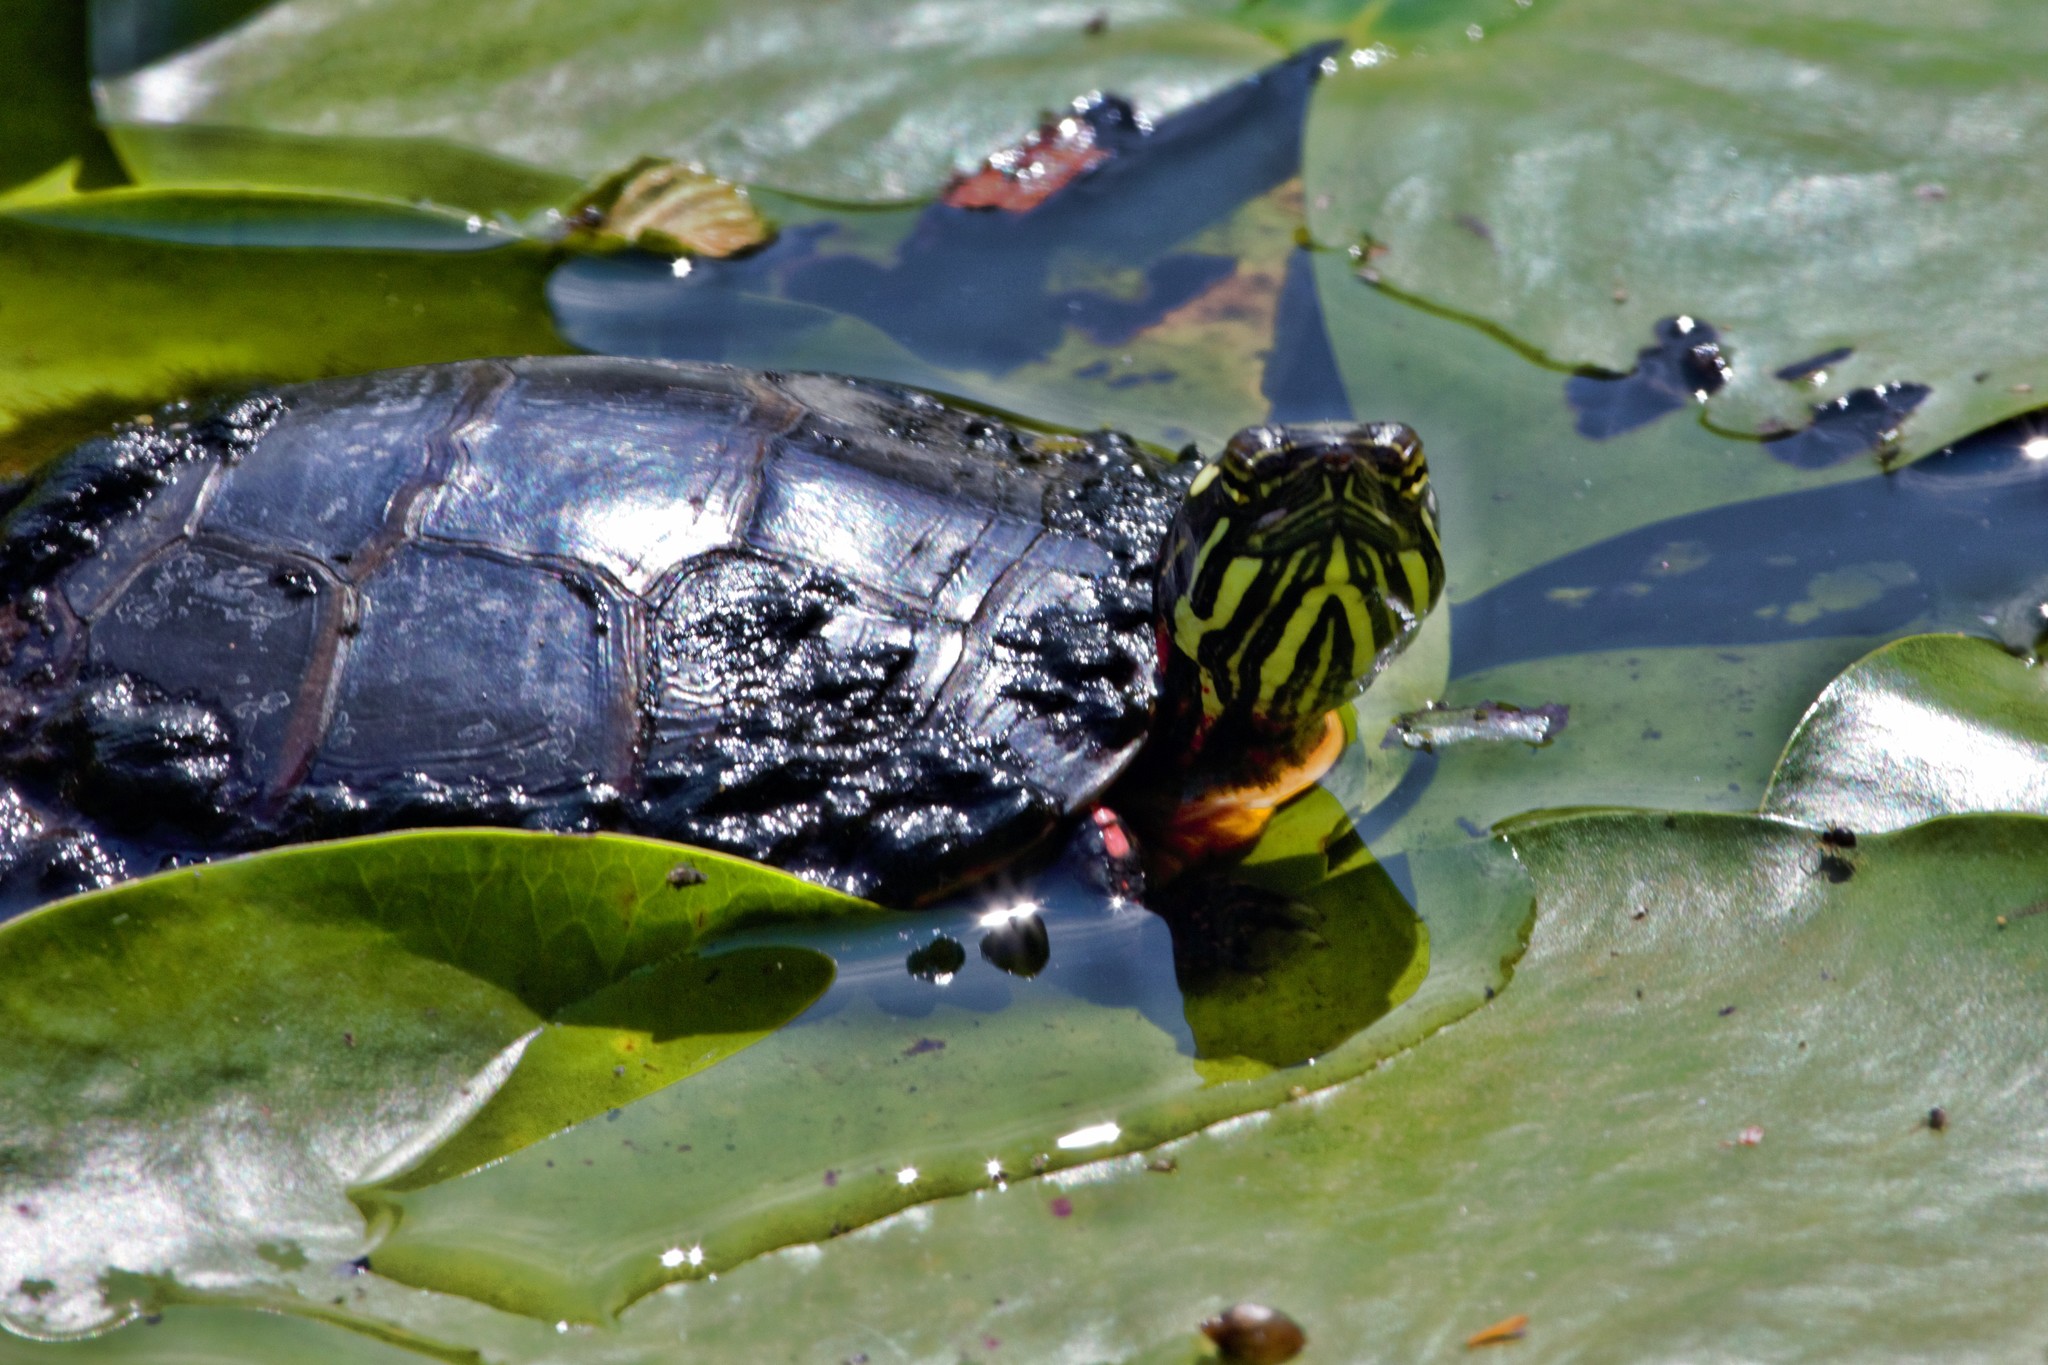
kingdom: Animalia
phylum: Chordata
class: Testudines
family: Emydidae
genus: Chrysemys
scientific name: Chrysemys picta
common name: Painted turtle
